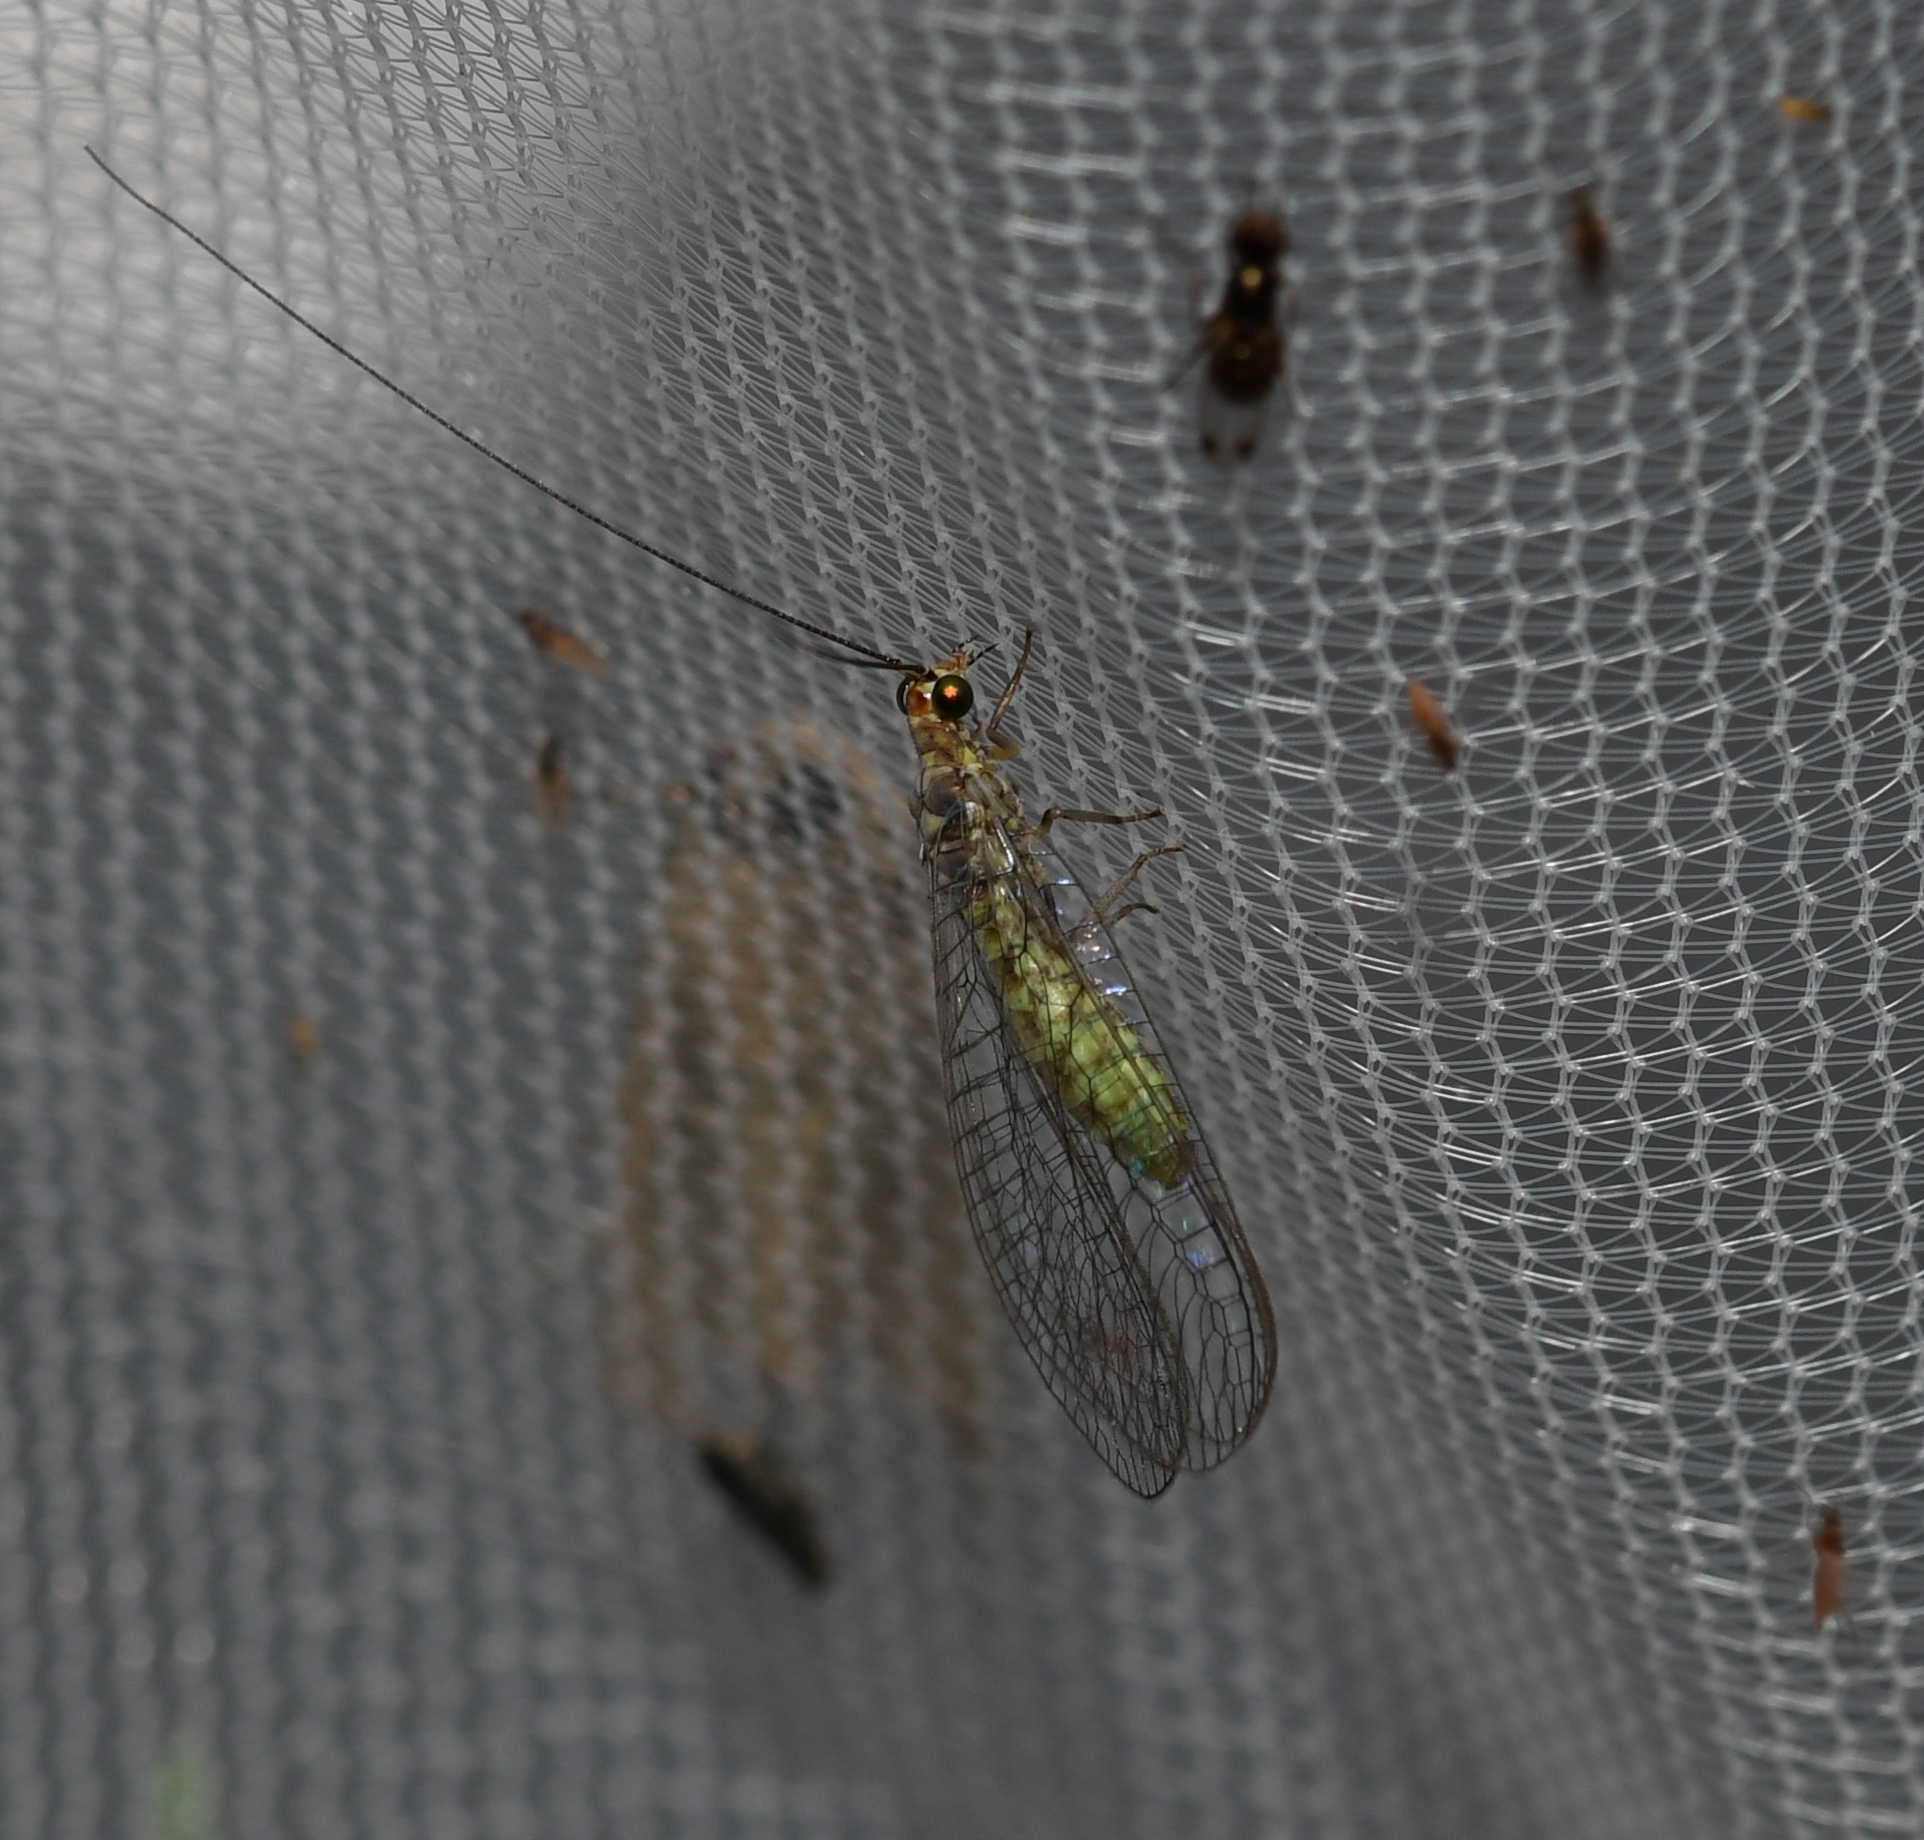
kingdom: Animalia
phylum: Arthropoda
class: Insecta
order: Neuroptera
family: Chrysopidae
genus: Yumachrysa
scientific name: Yumachrysa apache
